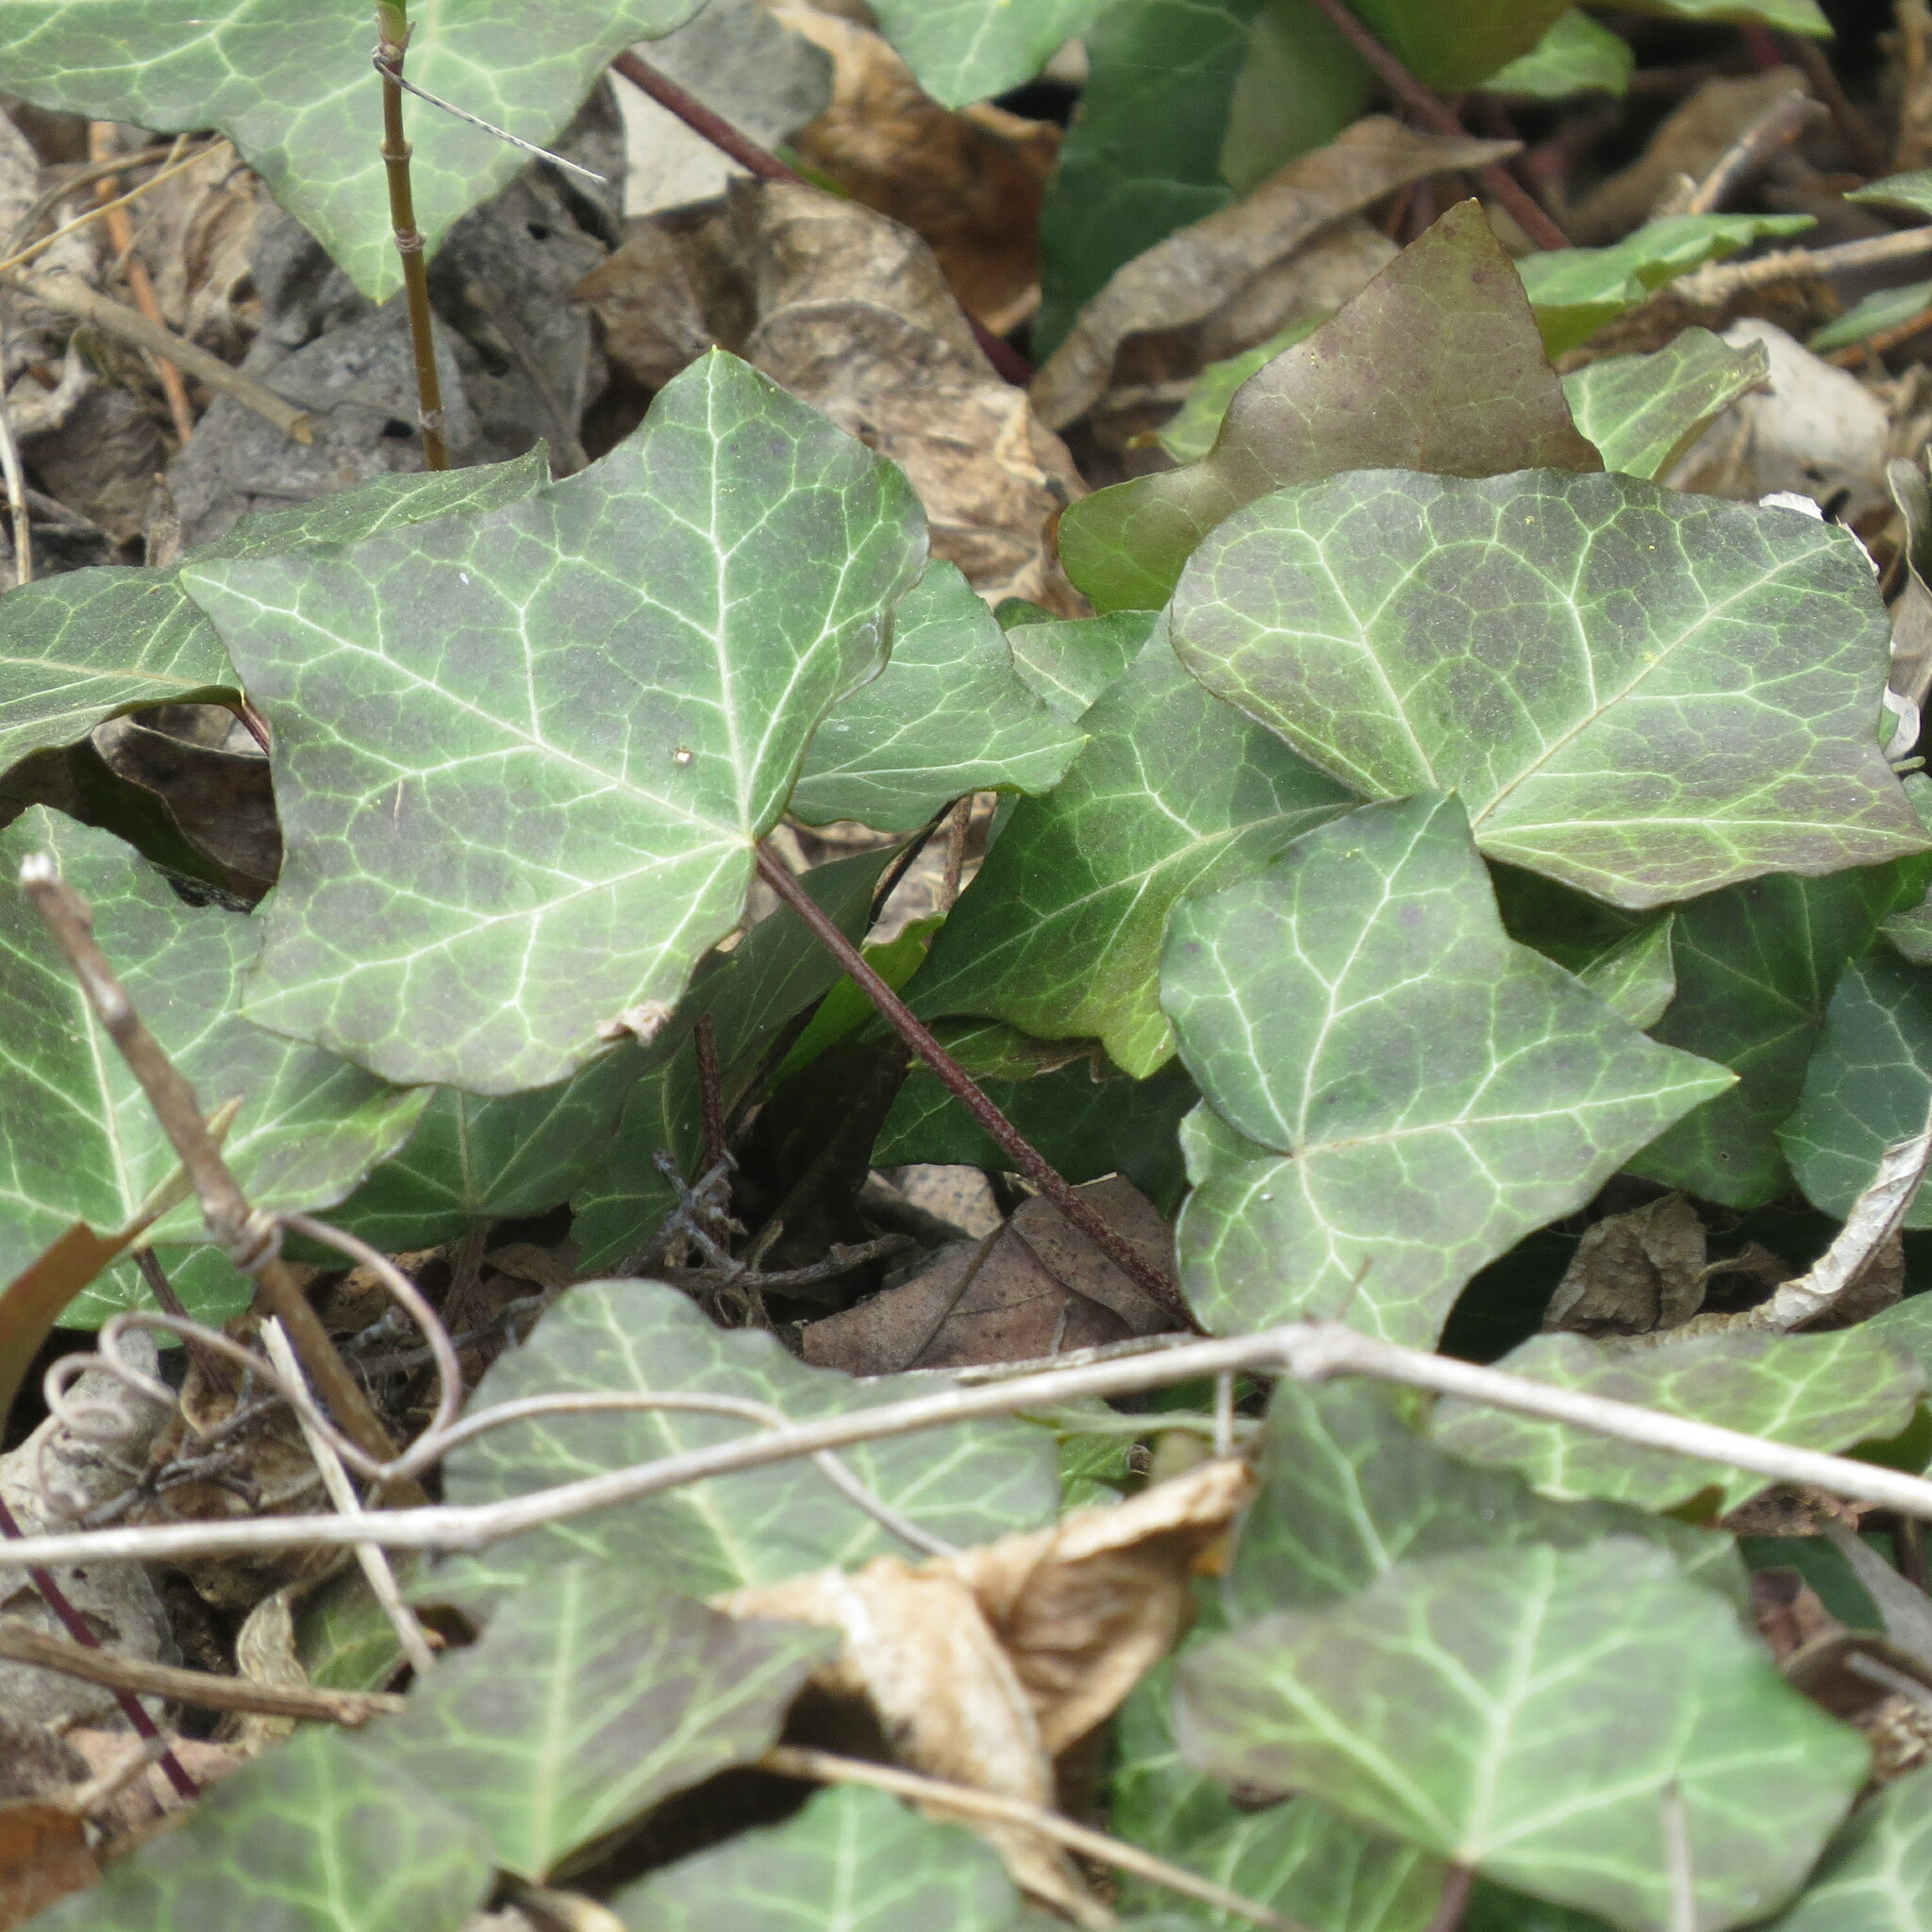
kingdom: Plantae
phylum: Tracheophyta
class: Magnoliopsida
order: Apiales
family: Araliaceae
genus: Hedera
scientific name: Hedera helix
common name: Ivy
